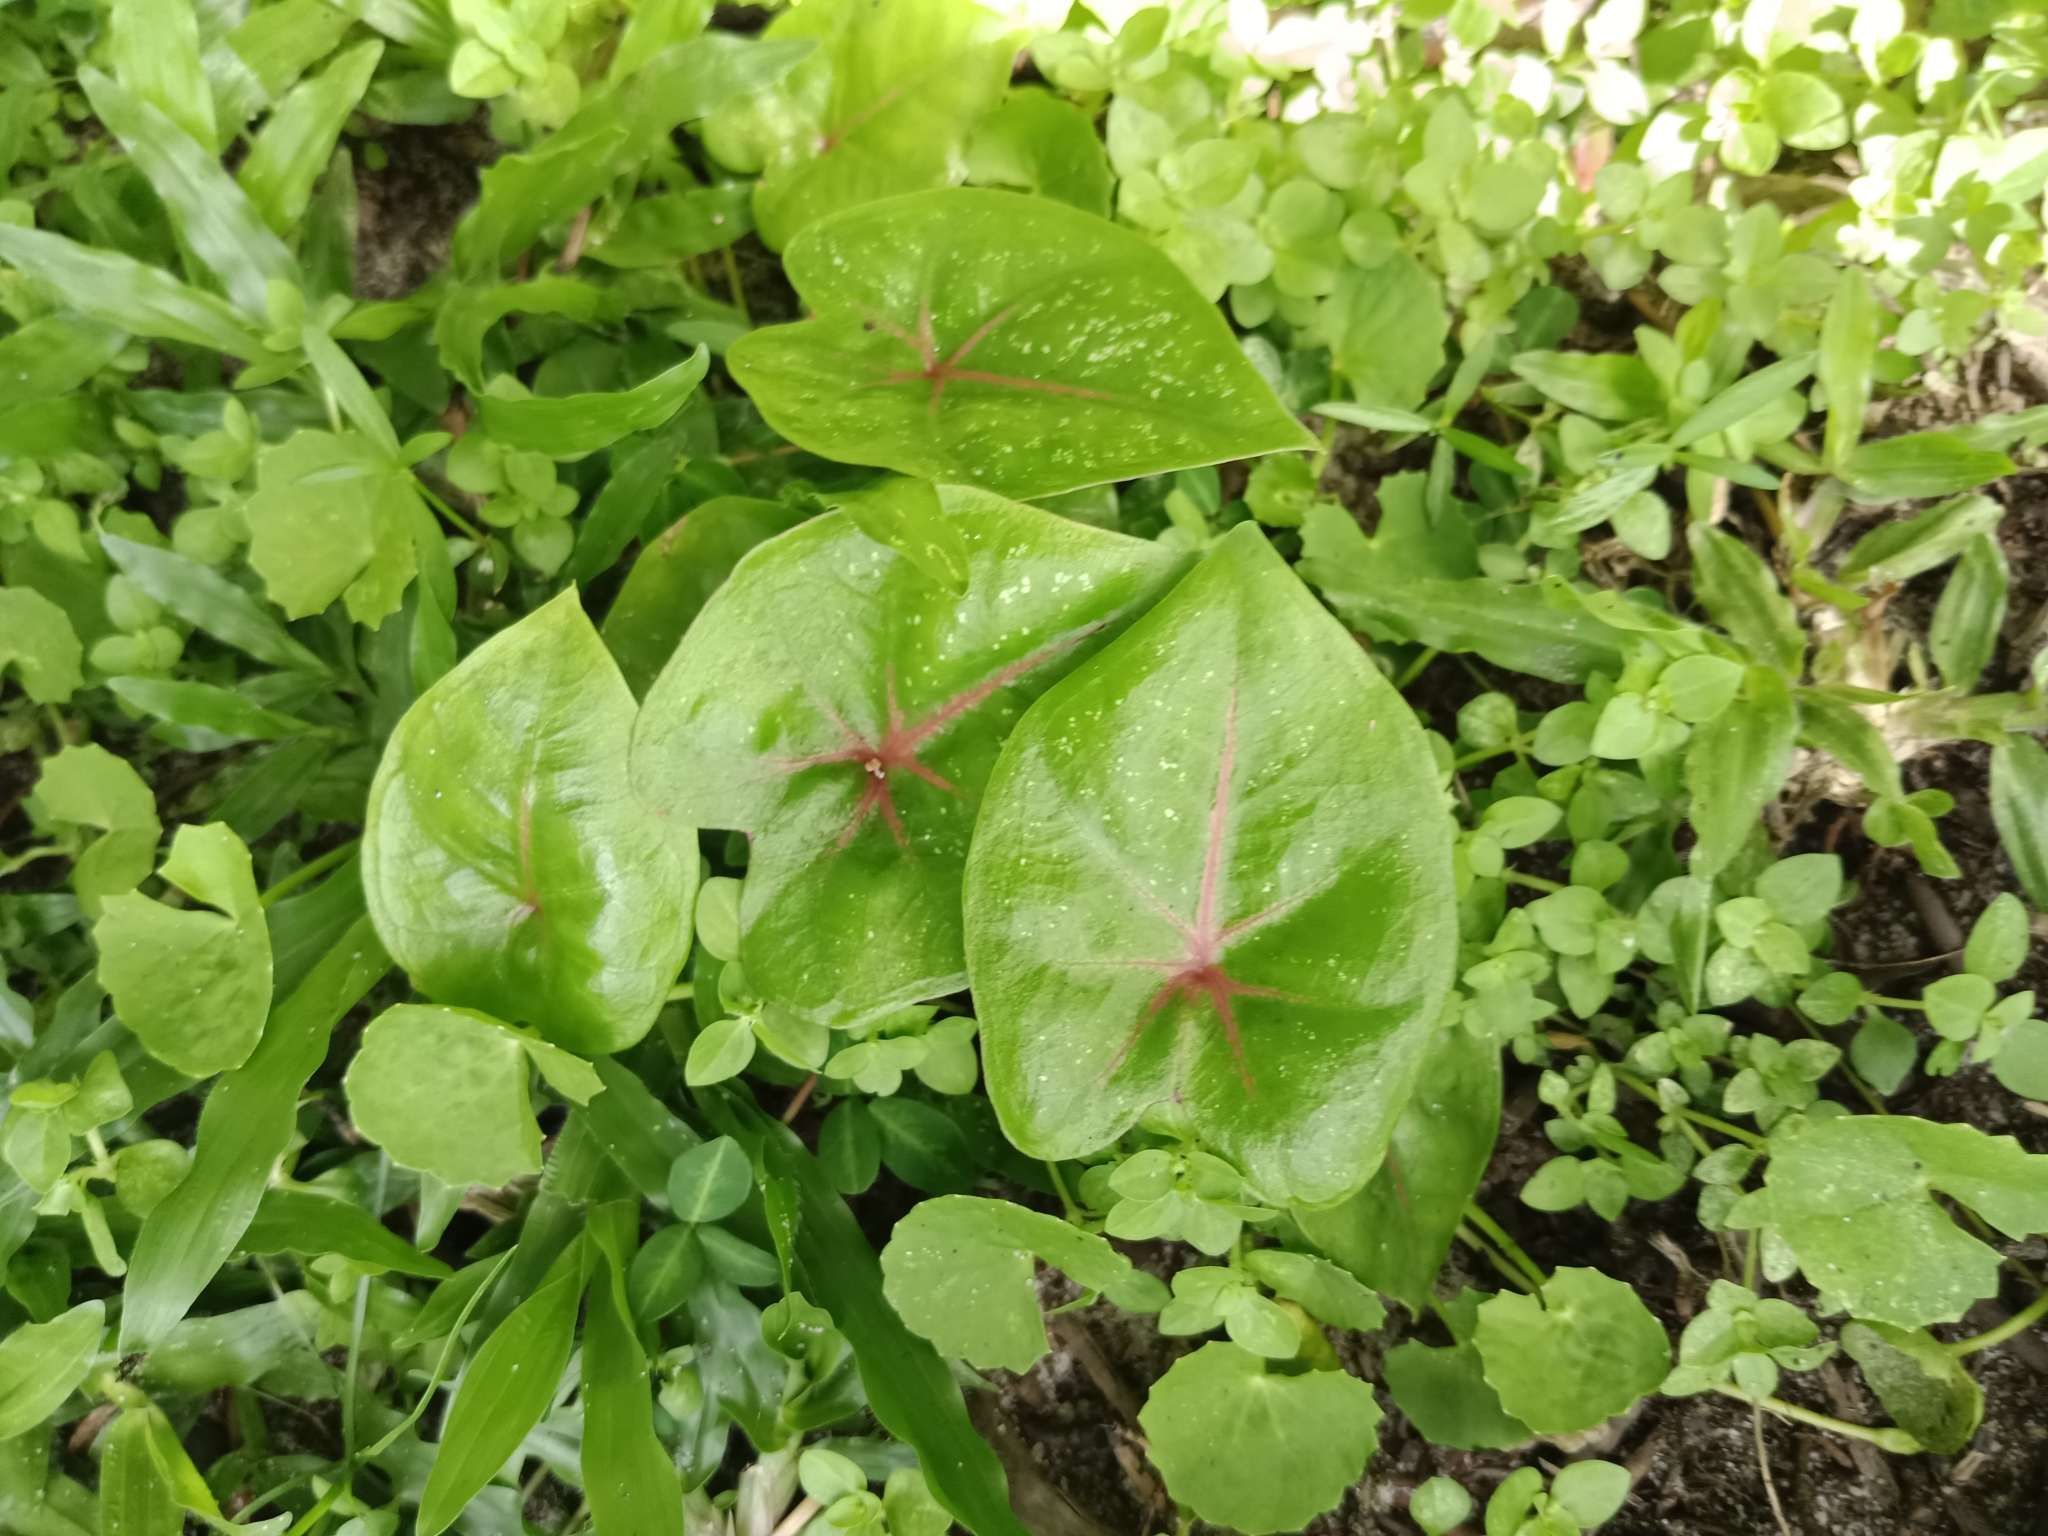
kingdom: Plantae
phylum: Tracheophyta
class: Liliopsida
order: Alismatales
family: Araceae
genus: Caladium
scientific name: Caladium bicolor
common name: Artist's pallet
